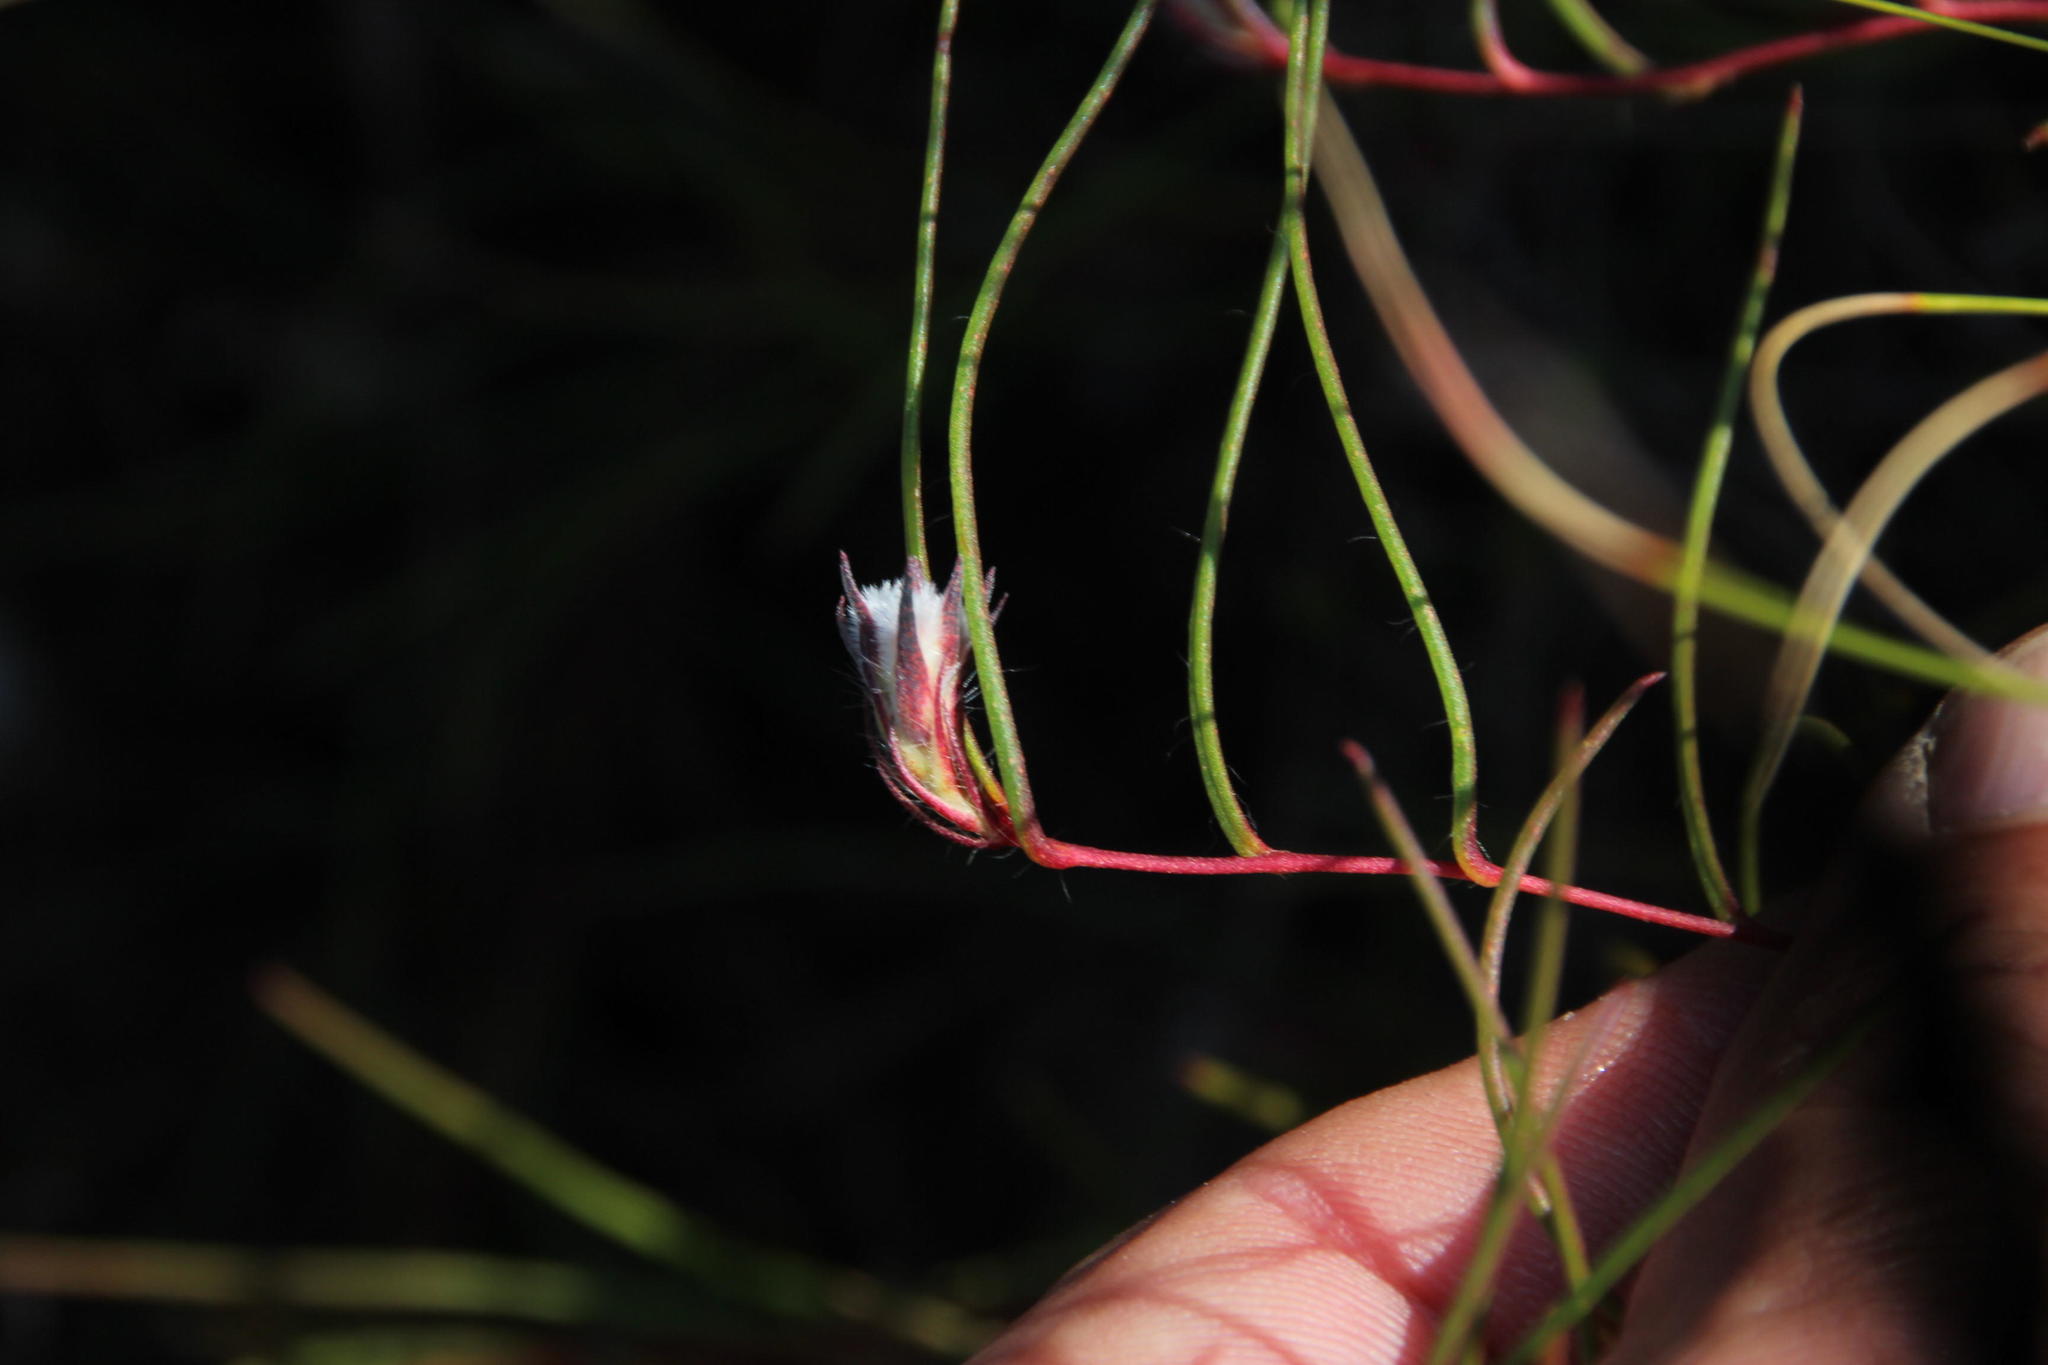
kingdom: Plantae
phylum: Tracheophyta
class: Magnoliopsida
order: Proteales
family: Proteaceae
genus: Serruria
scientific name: Serruria rebeloi
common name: Clandestine spiderhead
